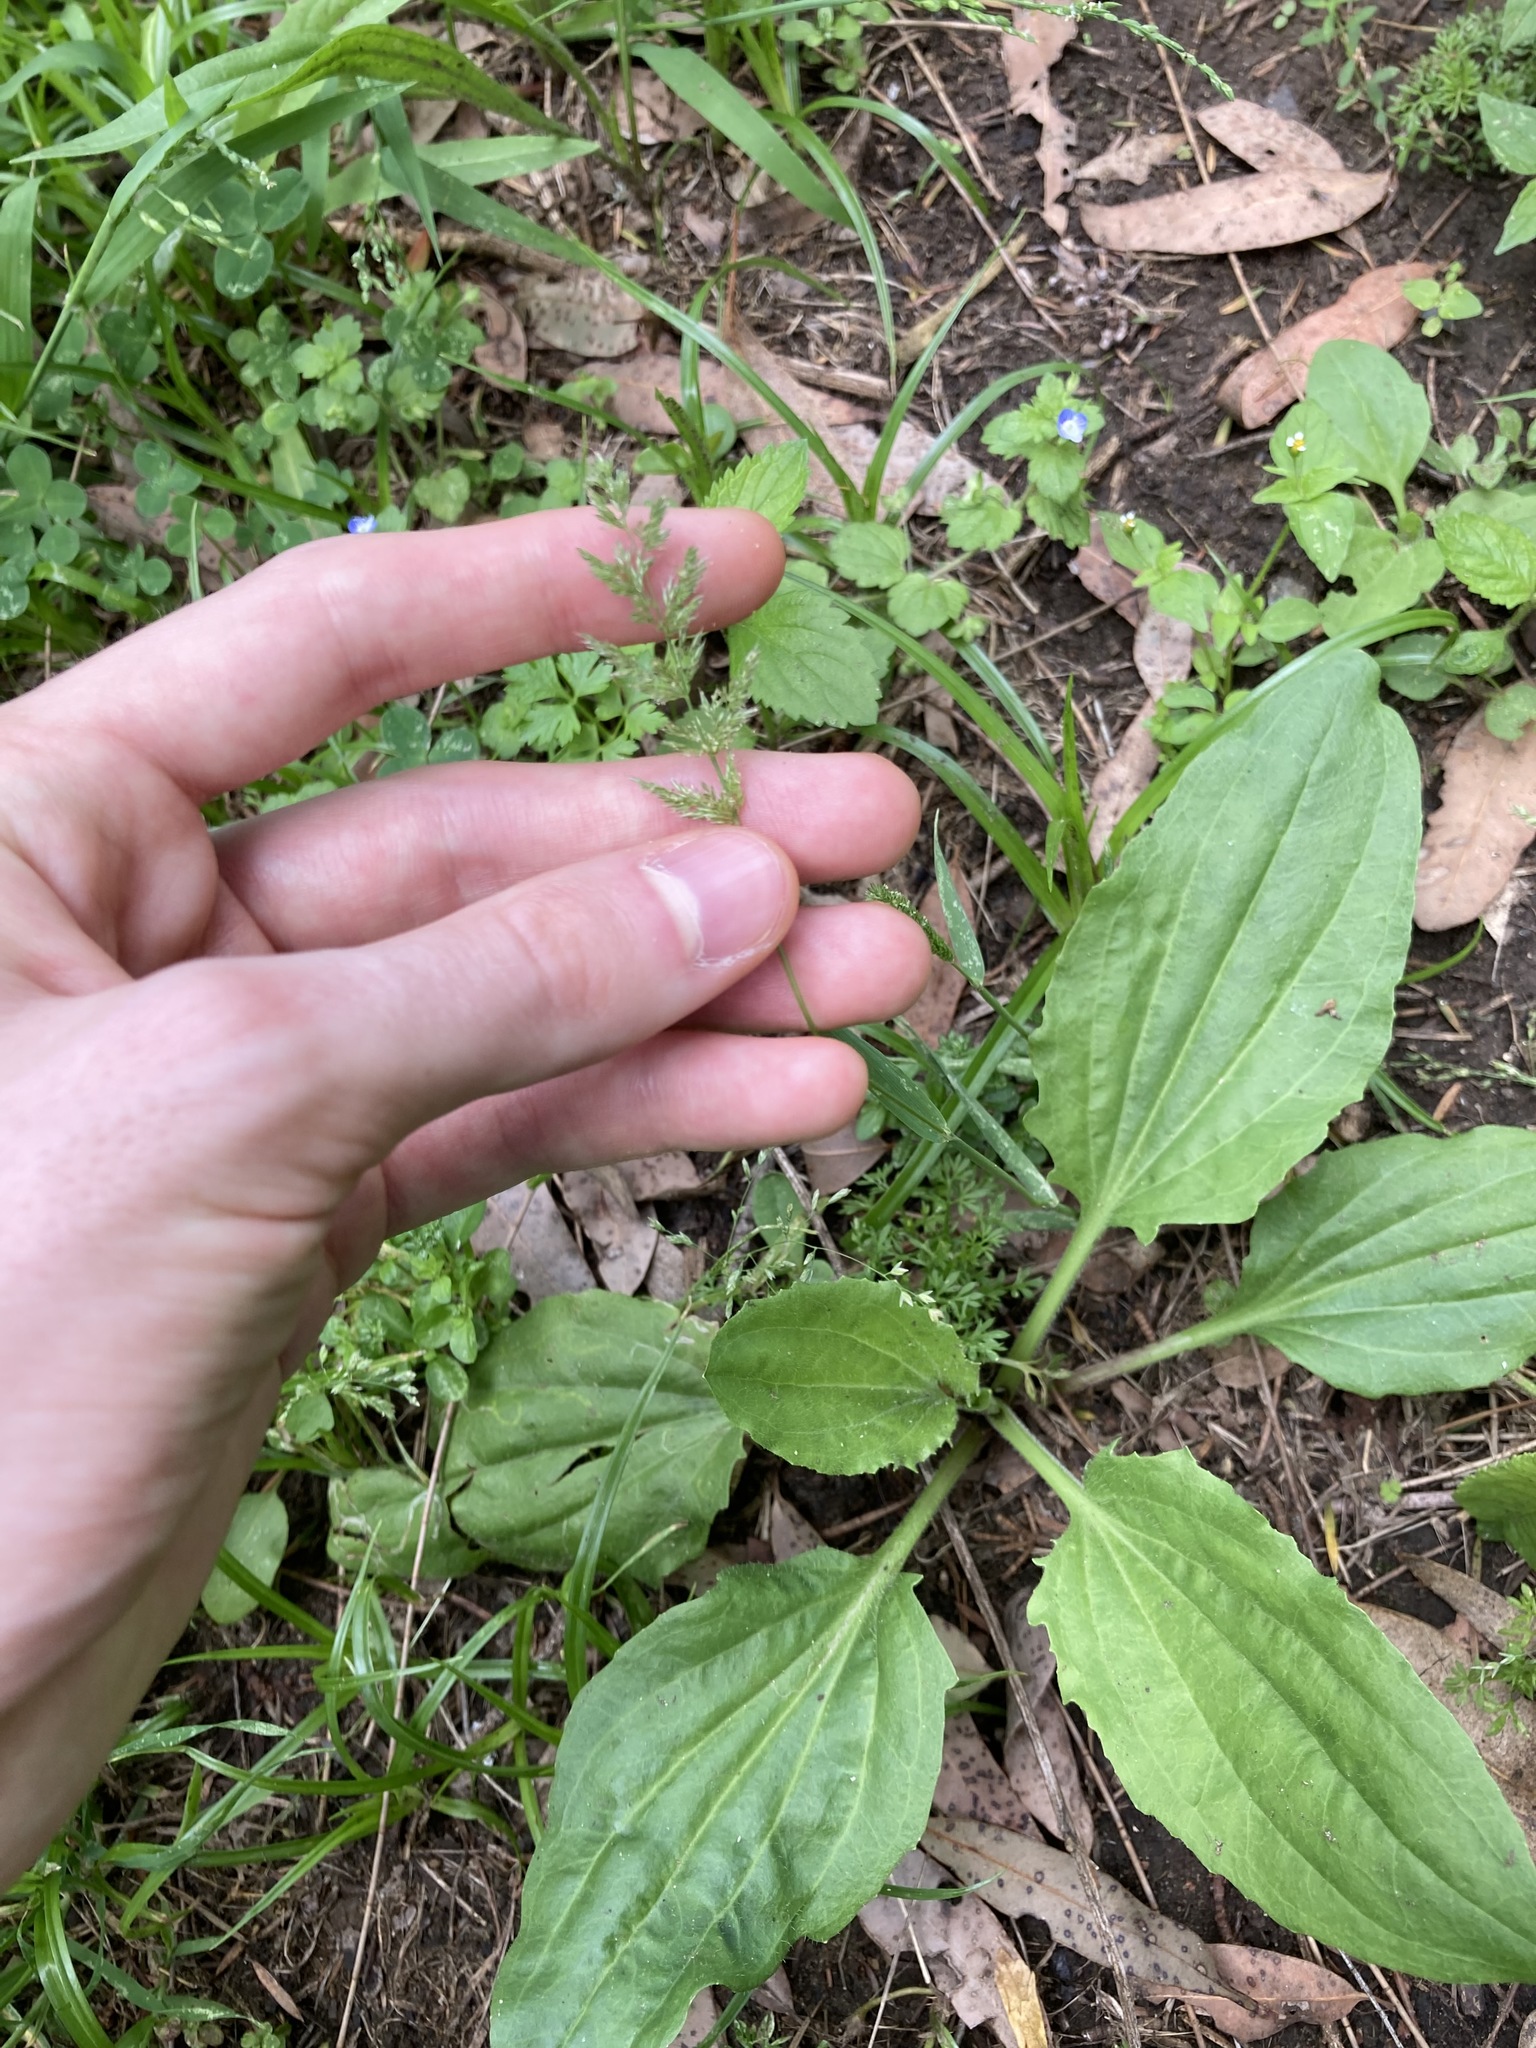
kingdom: Plantae
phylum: Tracheophyta
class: Liliopsida
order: Poales
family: Poaceae
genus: Agropogon
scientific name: Agropogon lutosus
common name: Coast agropogon
